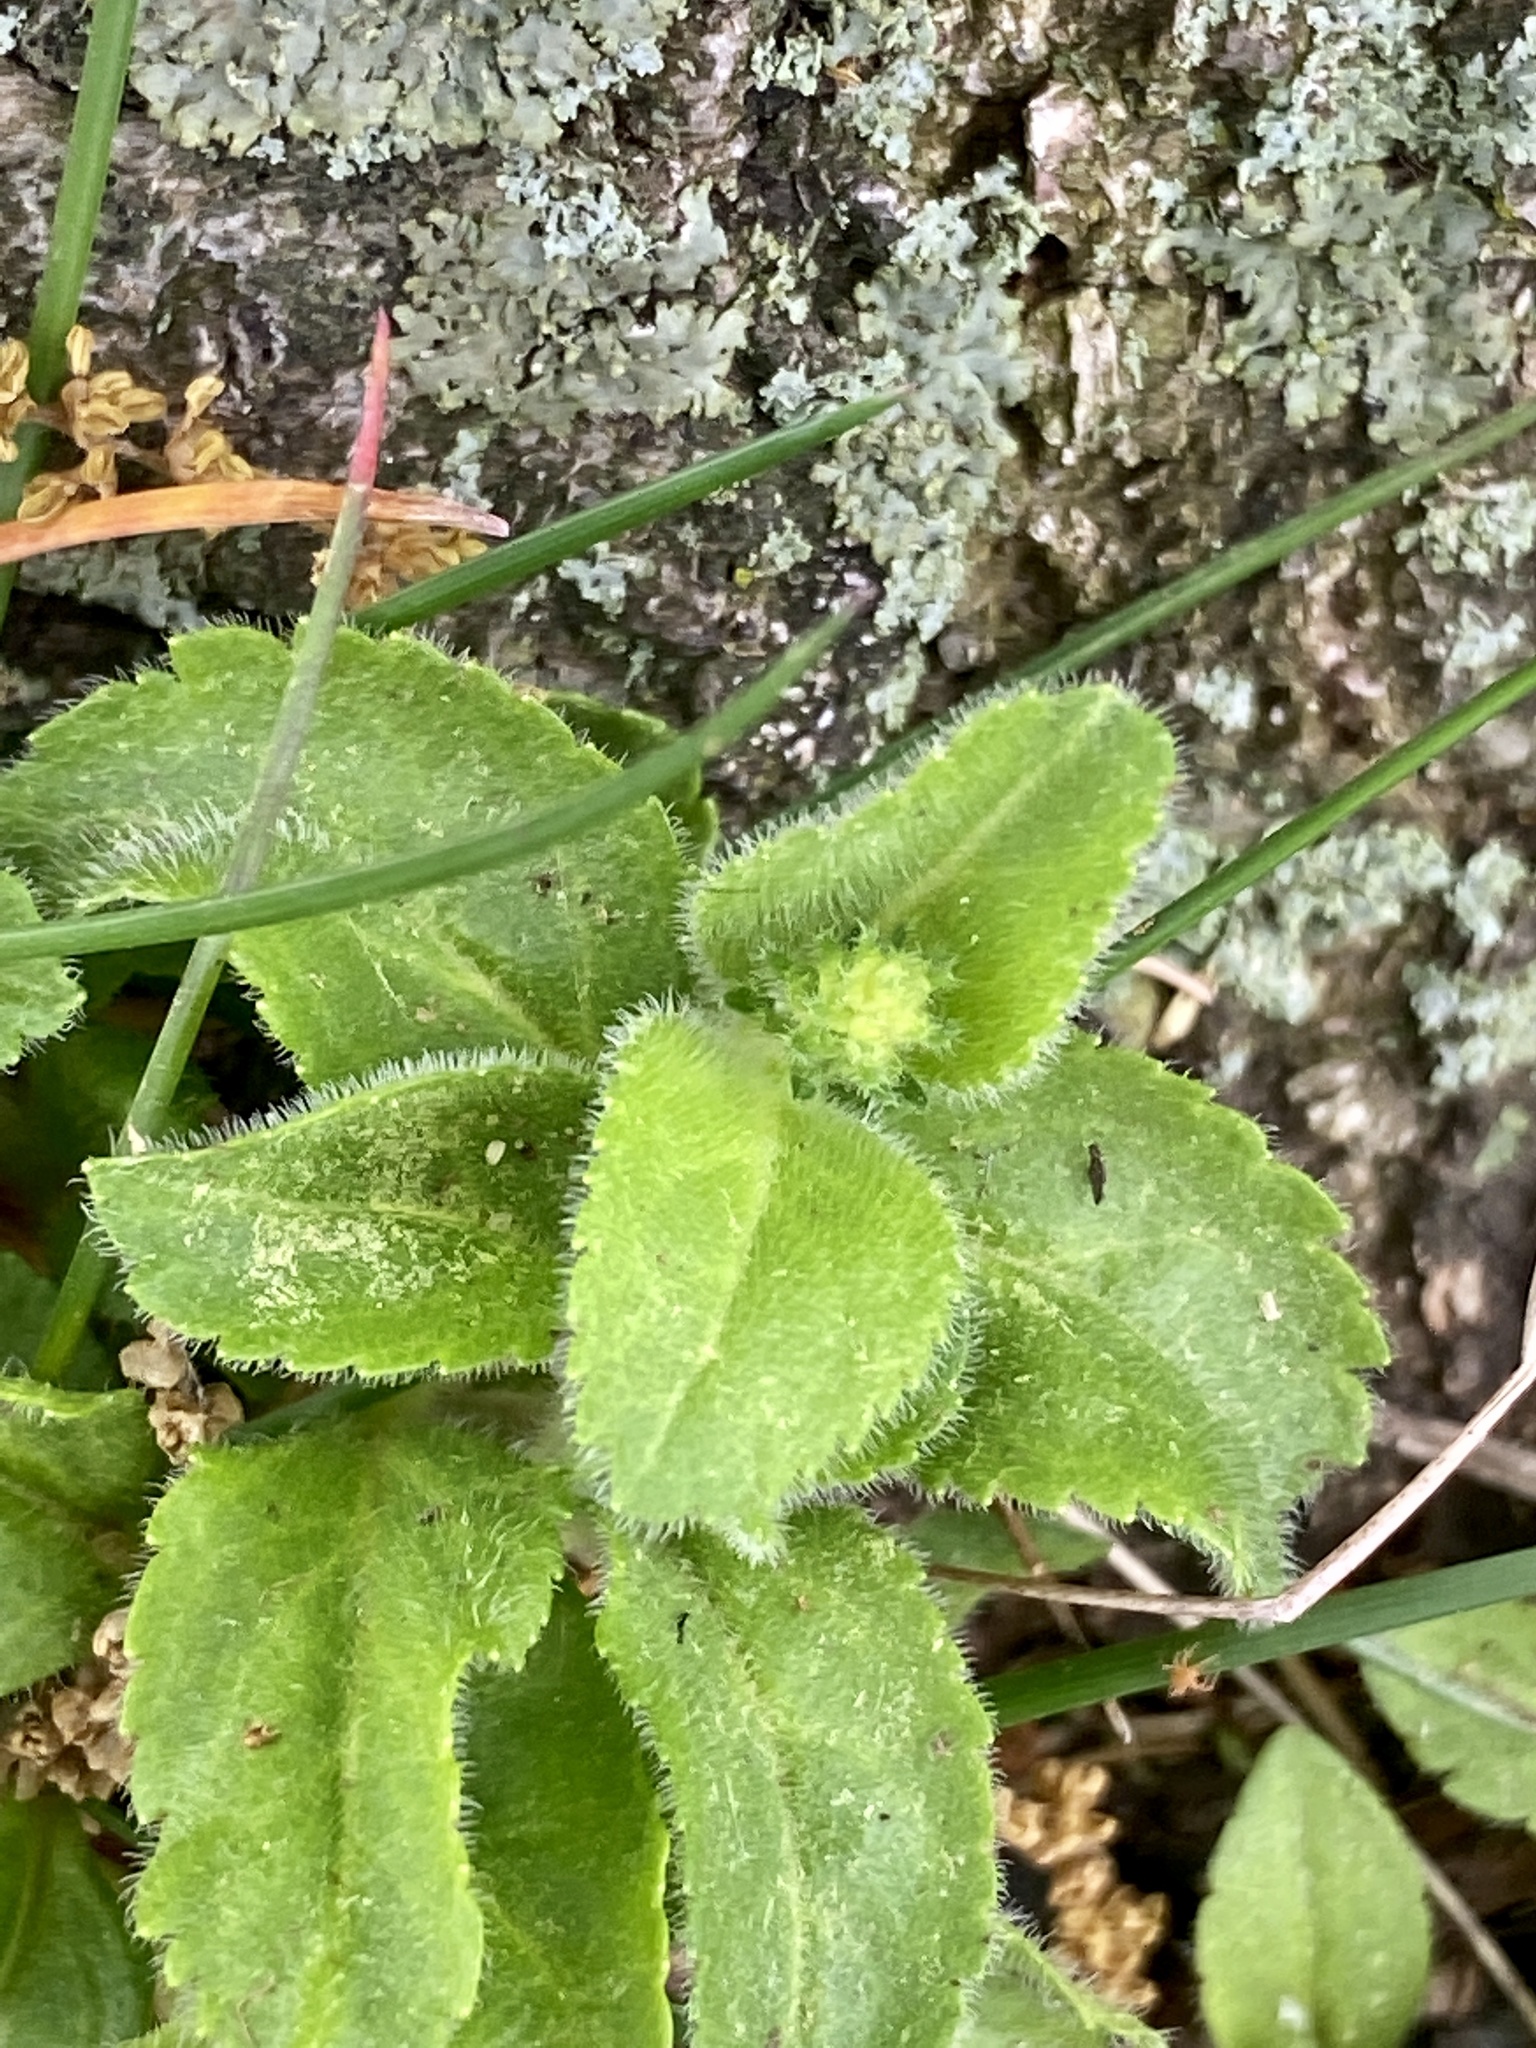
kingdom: Plantae
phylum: Tracheophyta
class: Magnoliopsida
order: Lamiales
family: Plantaginaceae
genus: Veronica
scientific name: Veronica officinalis
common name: Common speedwell
